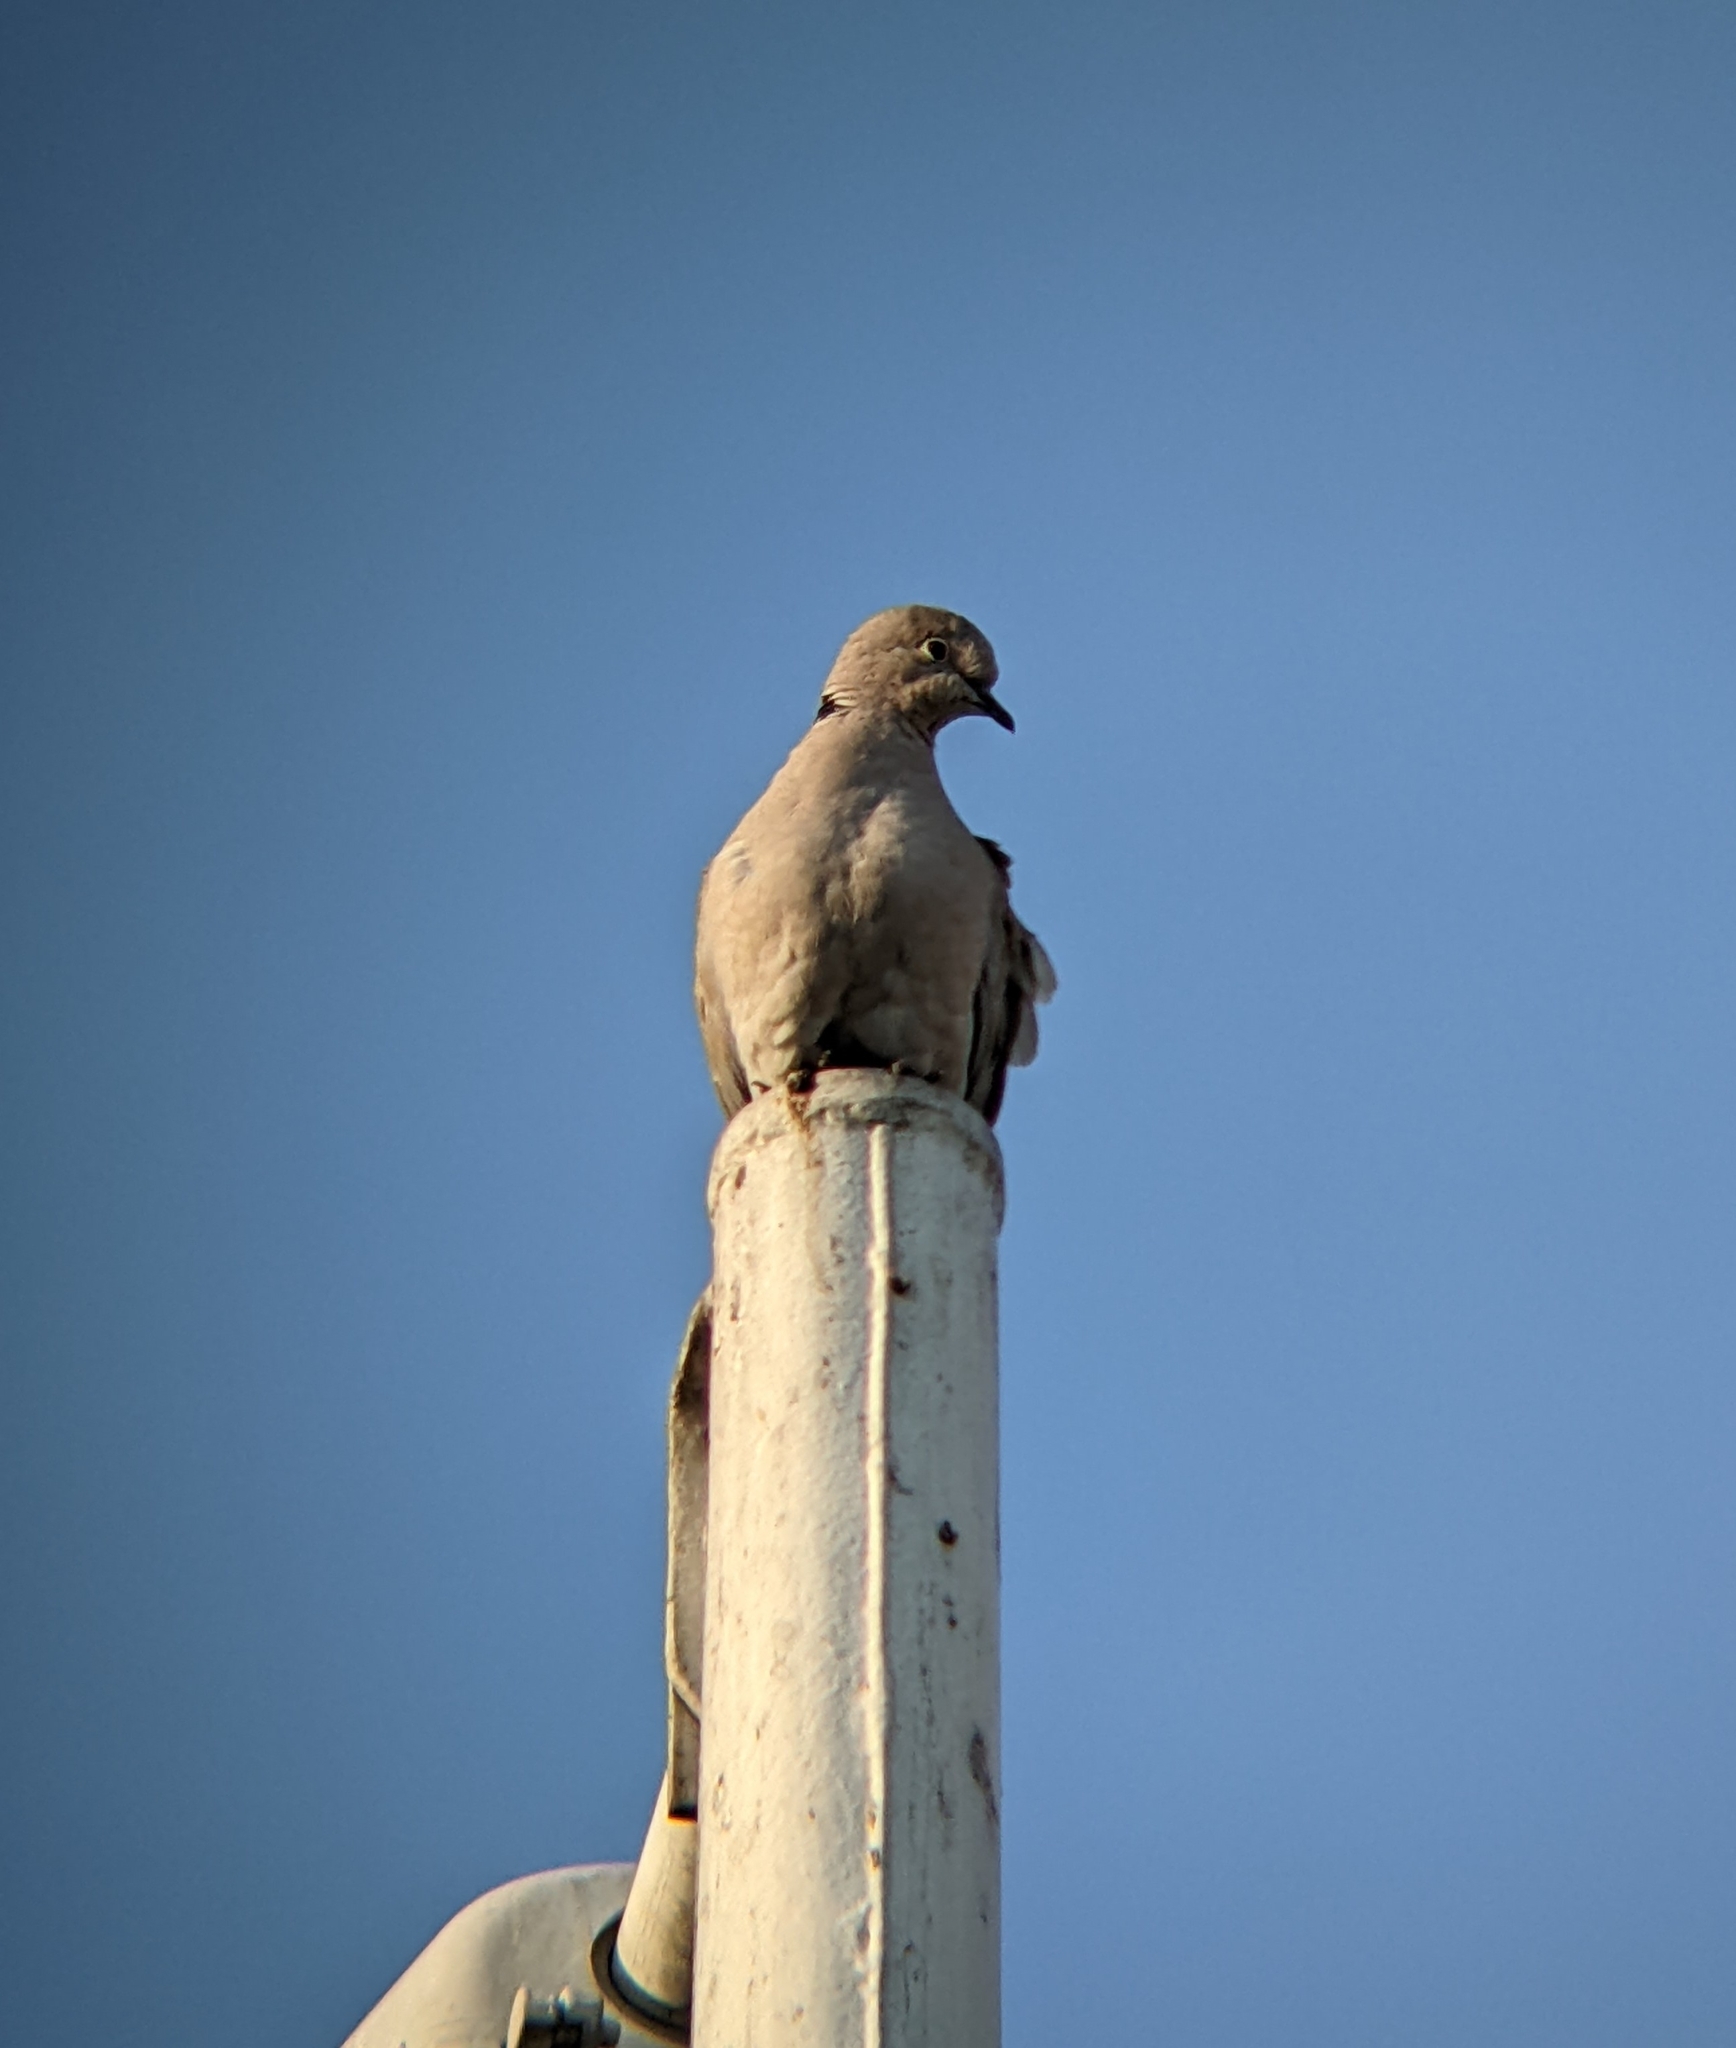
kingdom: Animalia
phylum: Chordata
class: Aves
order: Columbiformes
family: Columbidae
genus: Streptopelia
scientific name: Streptopelia decaocto
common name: Eurasian collared dove
